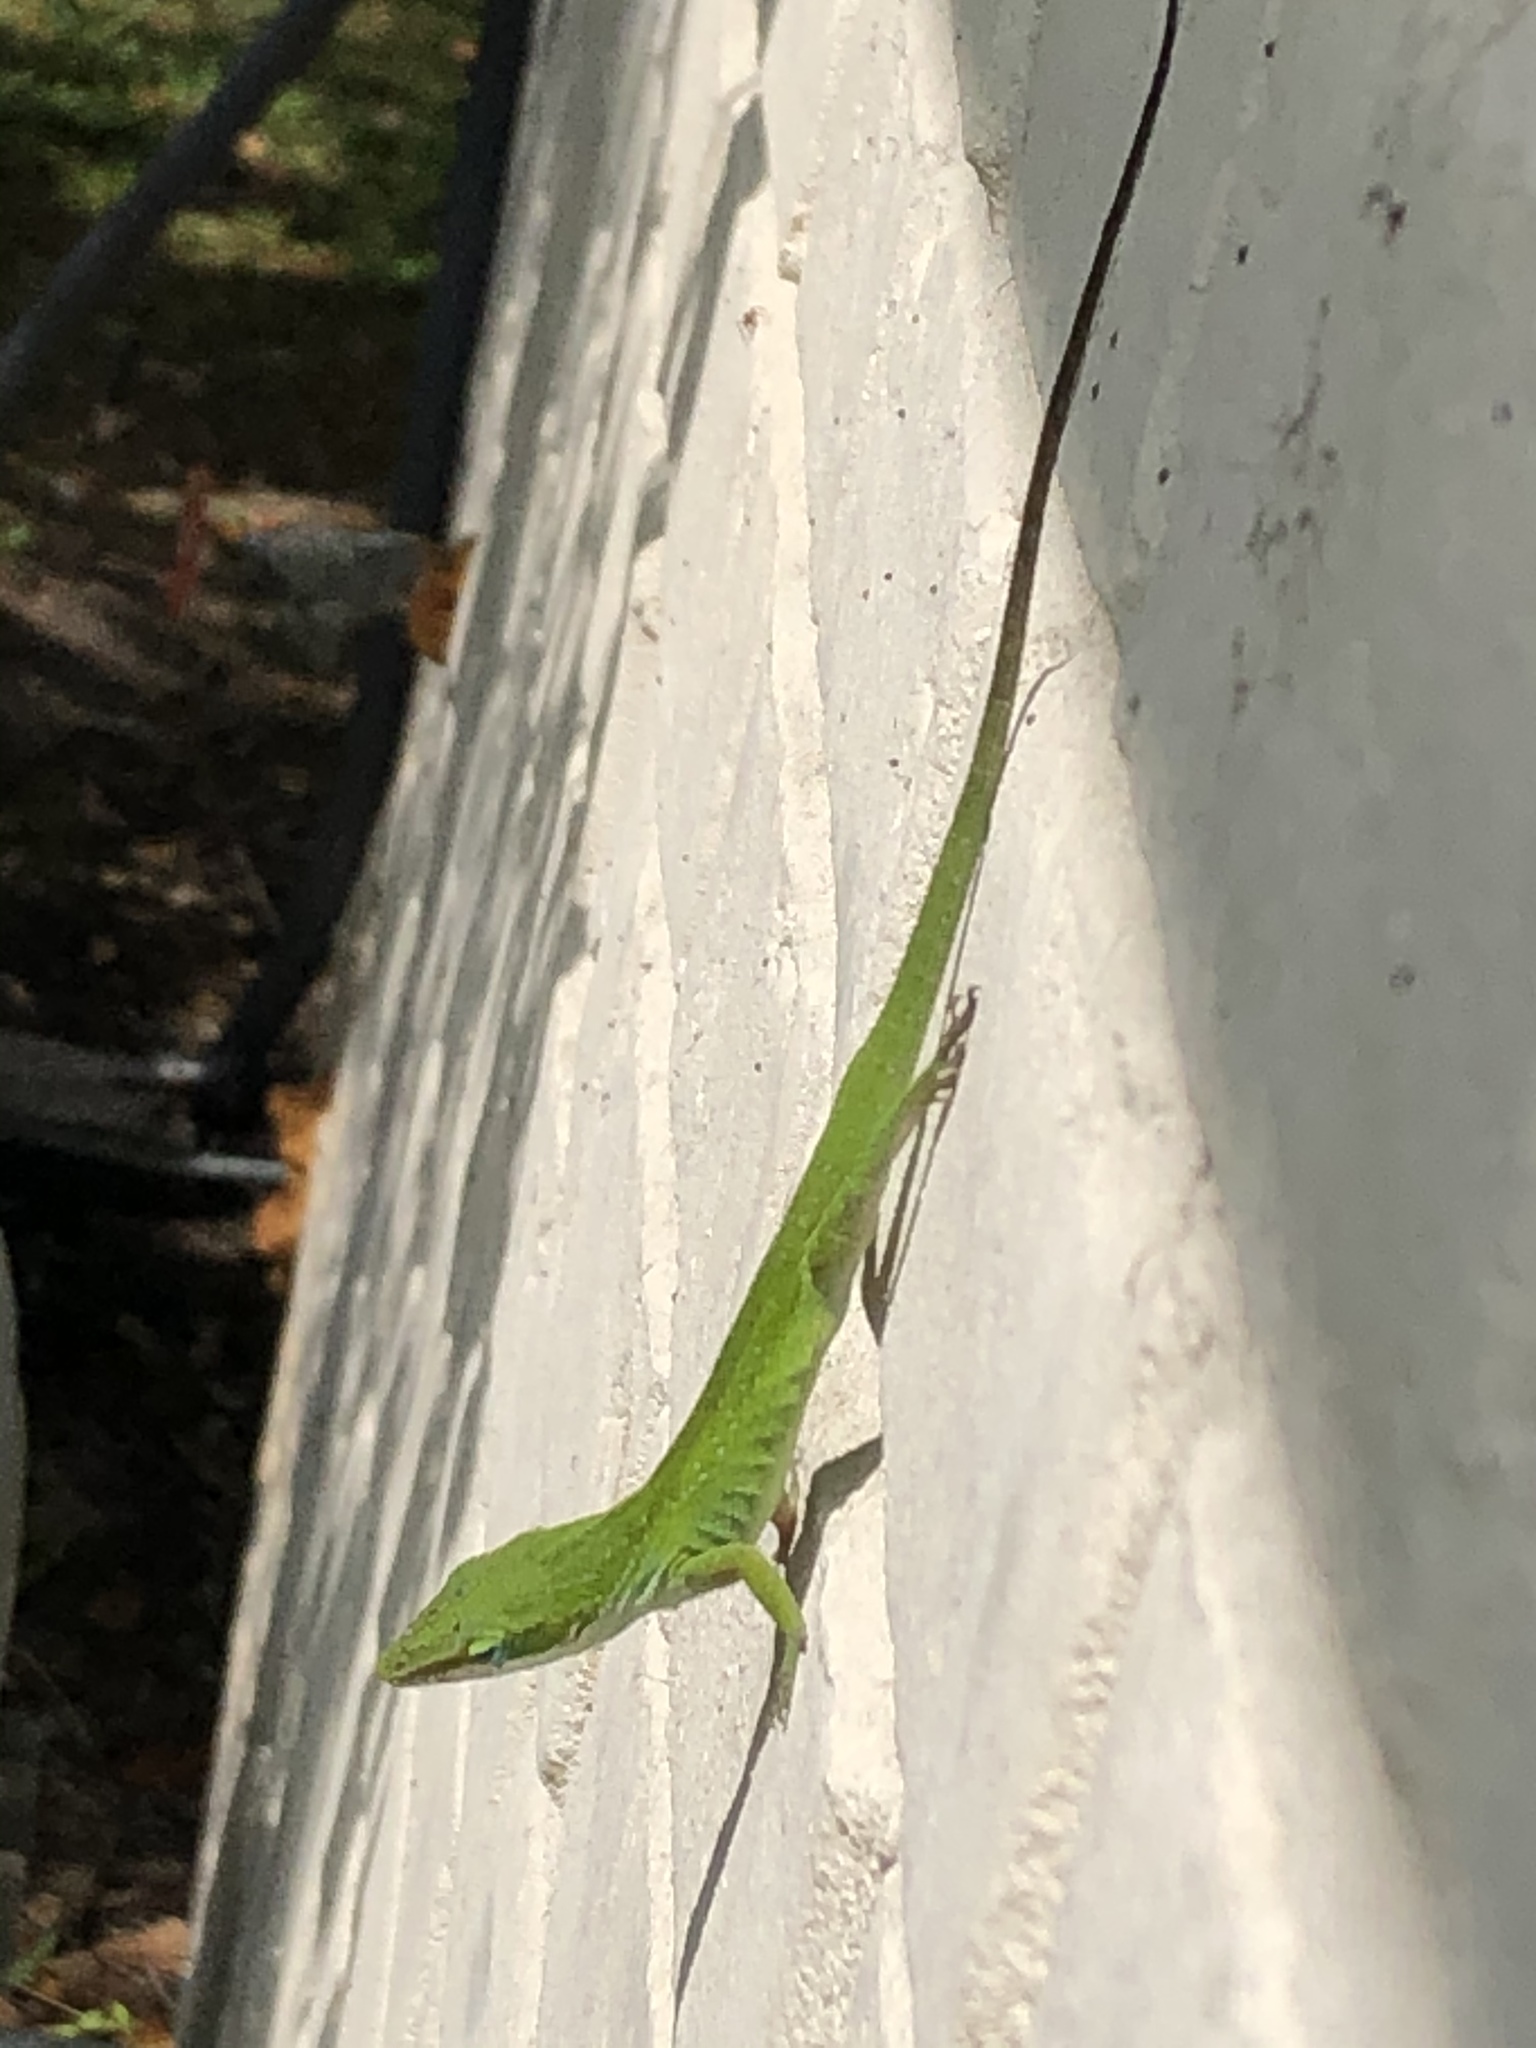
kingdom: Animalia
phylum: Chordata
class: Squamata
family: Dactyloidae
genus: Anolis
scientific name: Anolis carolinensis
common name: Green anole
